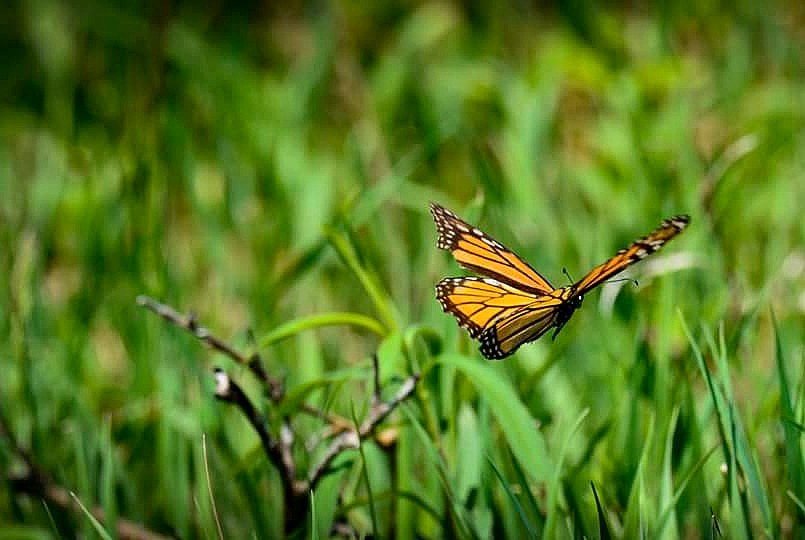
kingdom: Animalia
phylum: Arthropoda
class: Insecta
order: Lepidoptera
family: Nymphalidae
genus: Danaus
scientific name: Danaus plexippus
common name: Monarch
